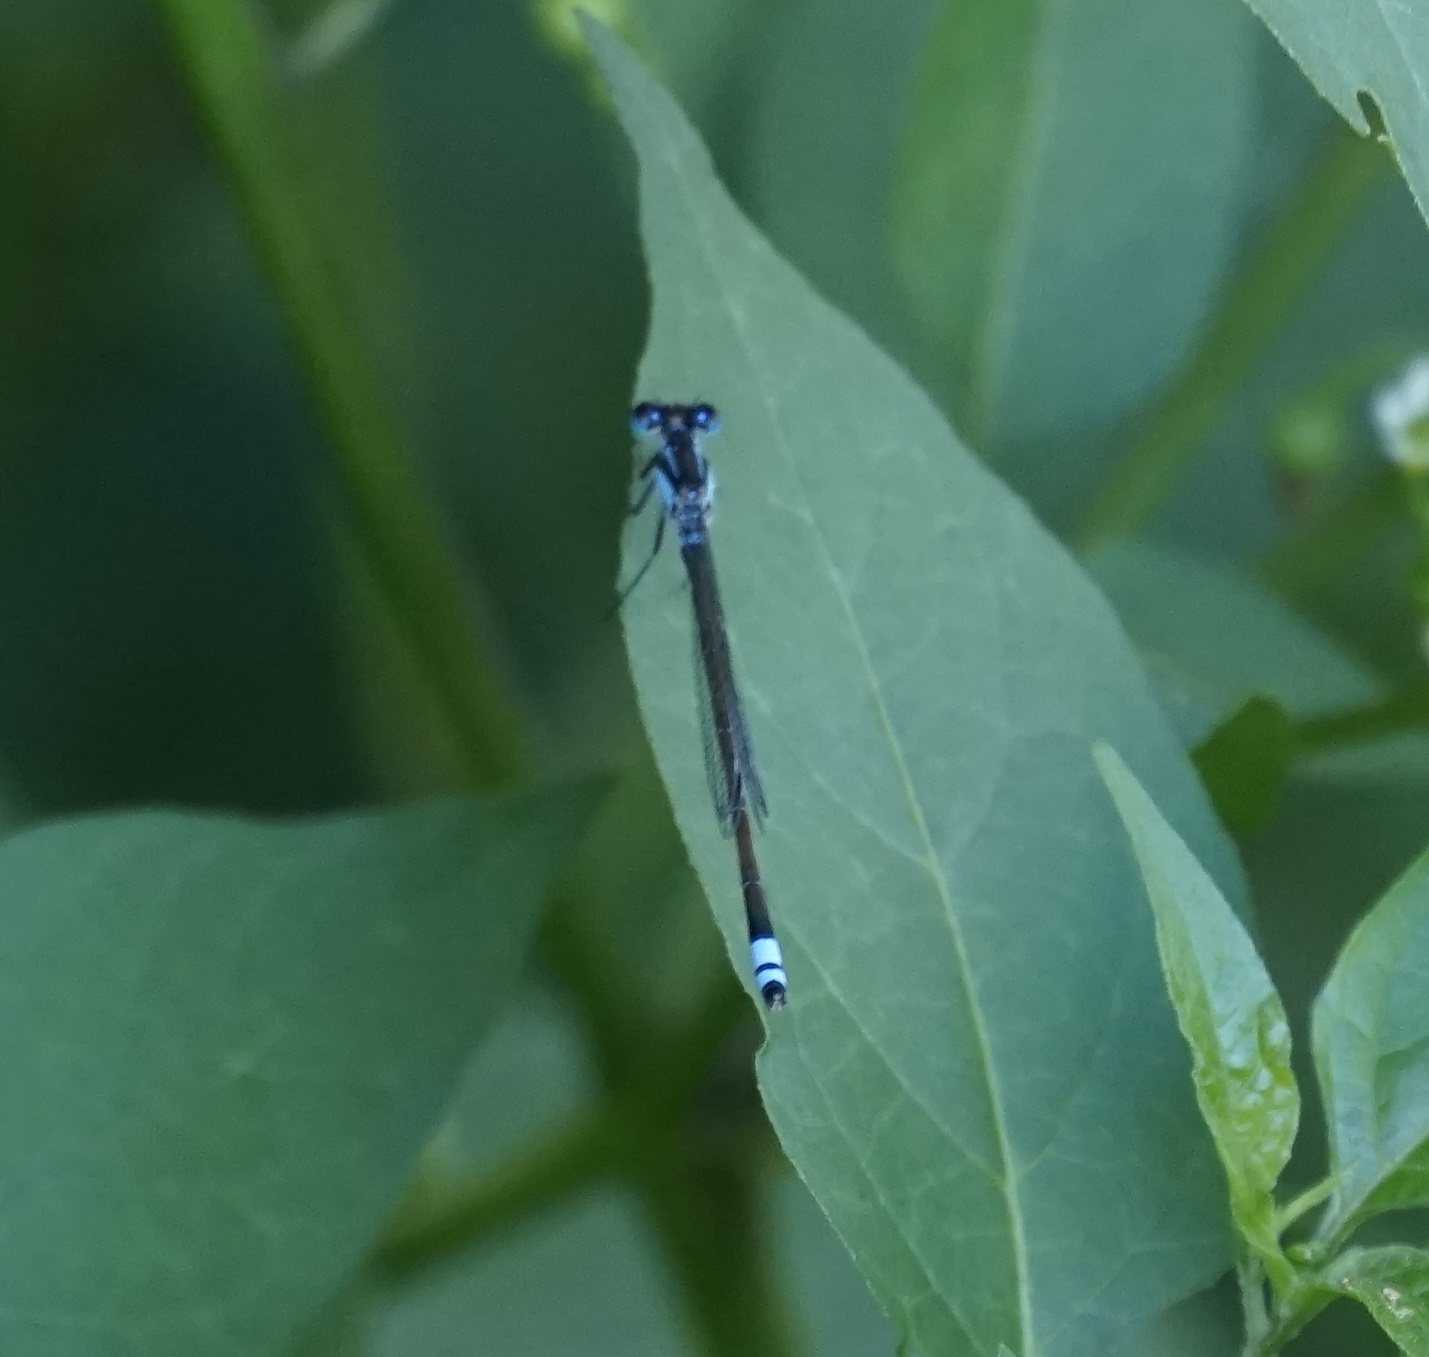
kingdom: Animalia
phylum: Arthropoda
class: Insecta
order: Odonata
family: Coenagrionidae
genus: Ischnura
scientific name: Ischnura heterosticta
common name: Common bluetail
